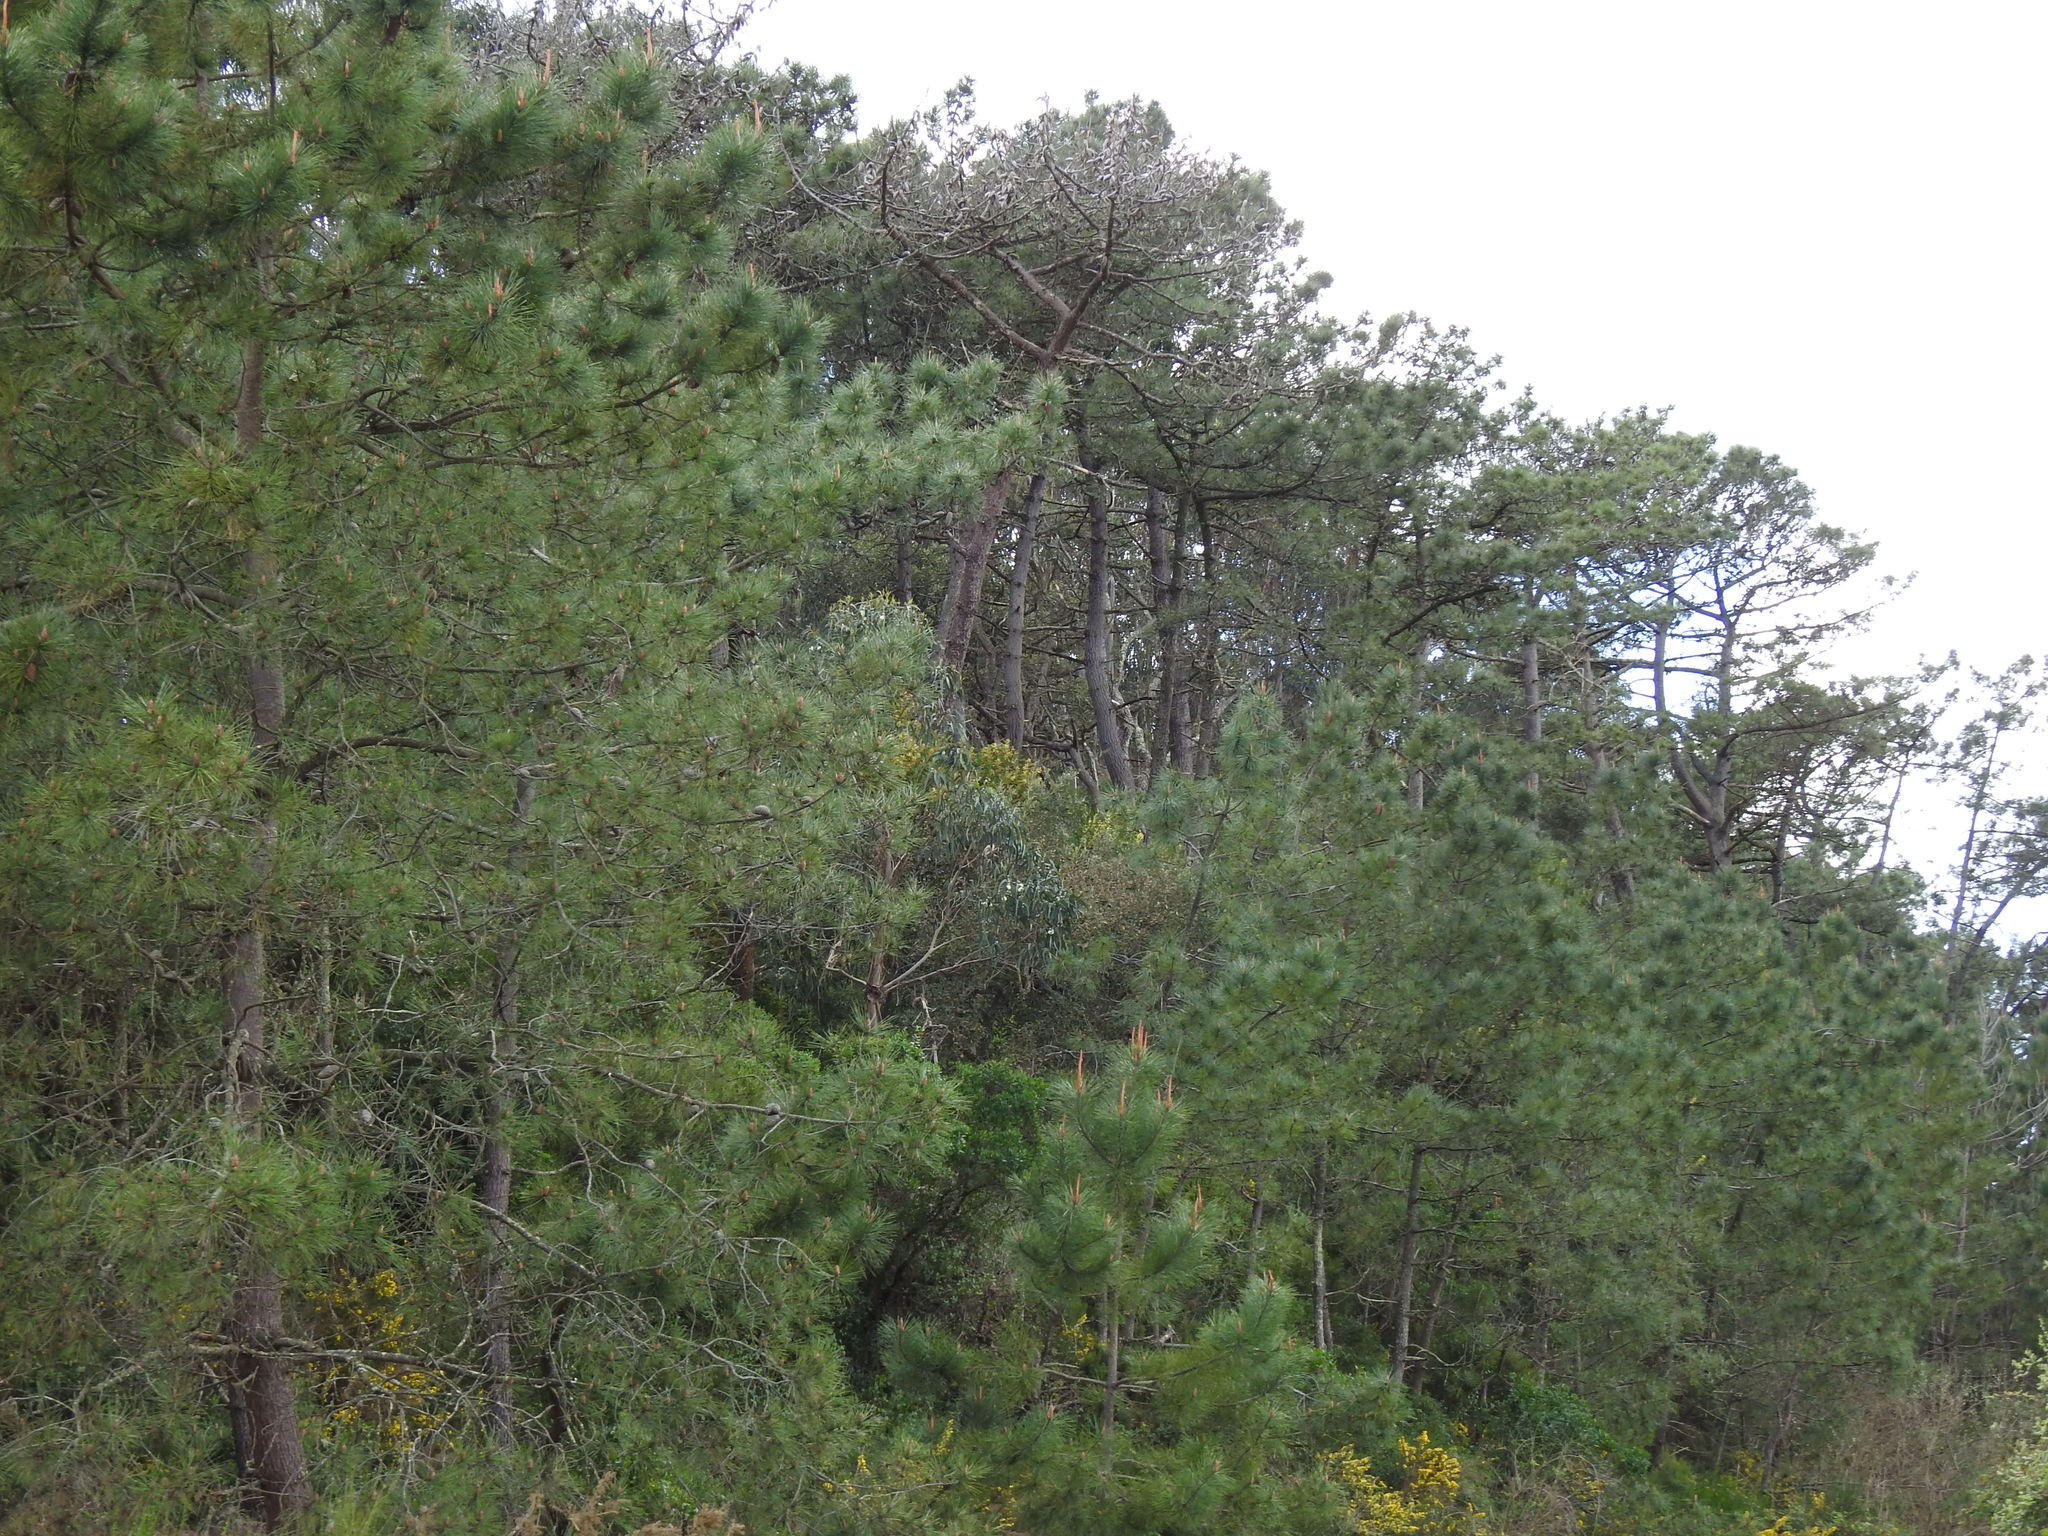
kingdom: Plantae
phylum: Tracheophyta
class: Pinopsida
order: Pinales
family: Pinaceae
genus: Pinus
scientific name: Pinus pinaster
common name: Maritime pine
